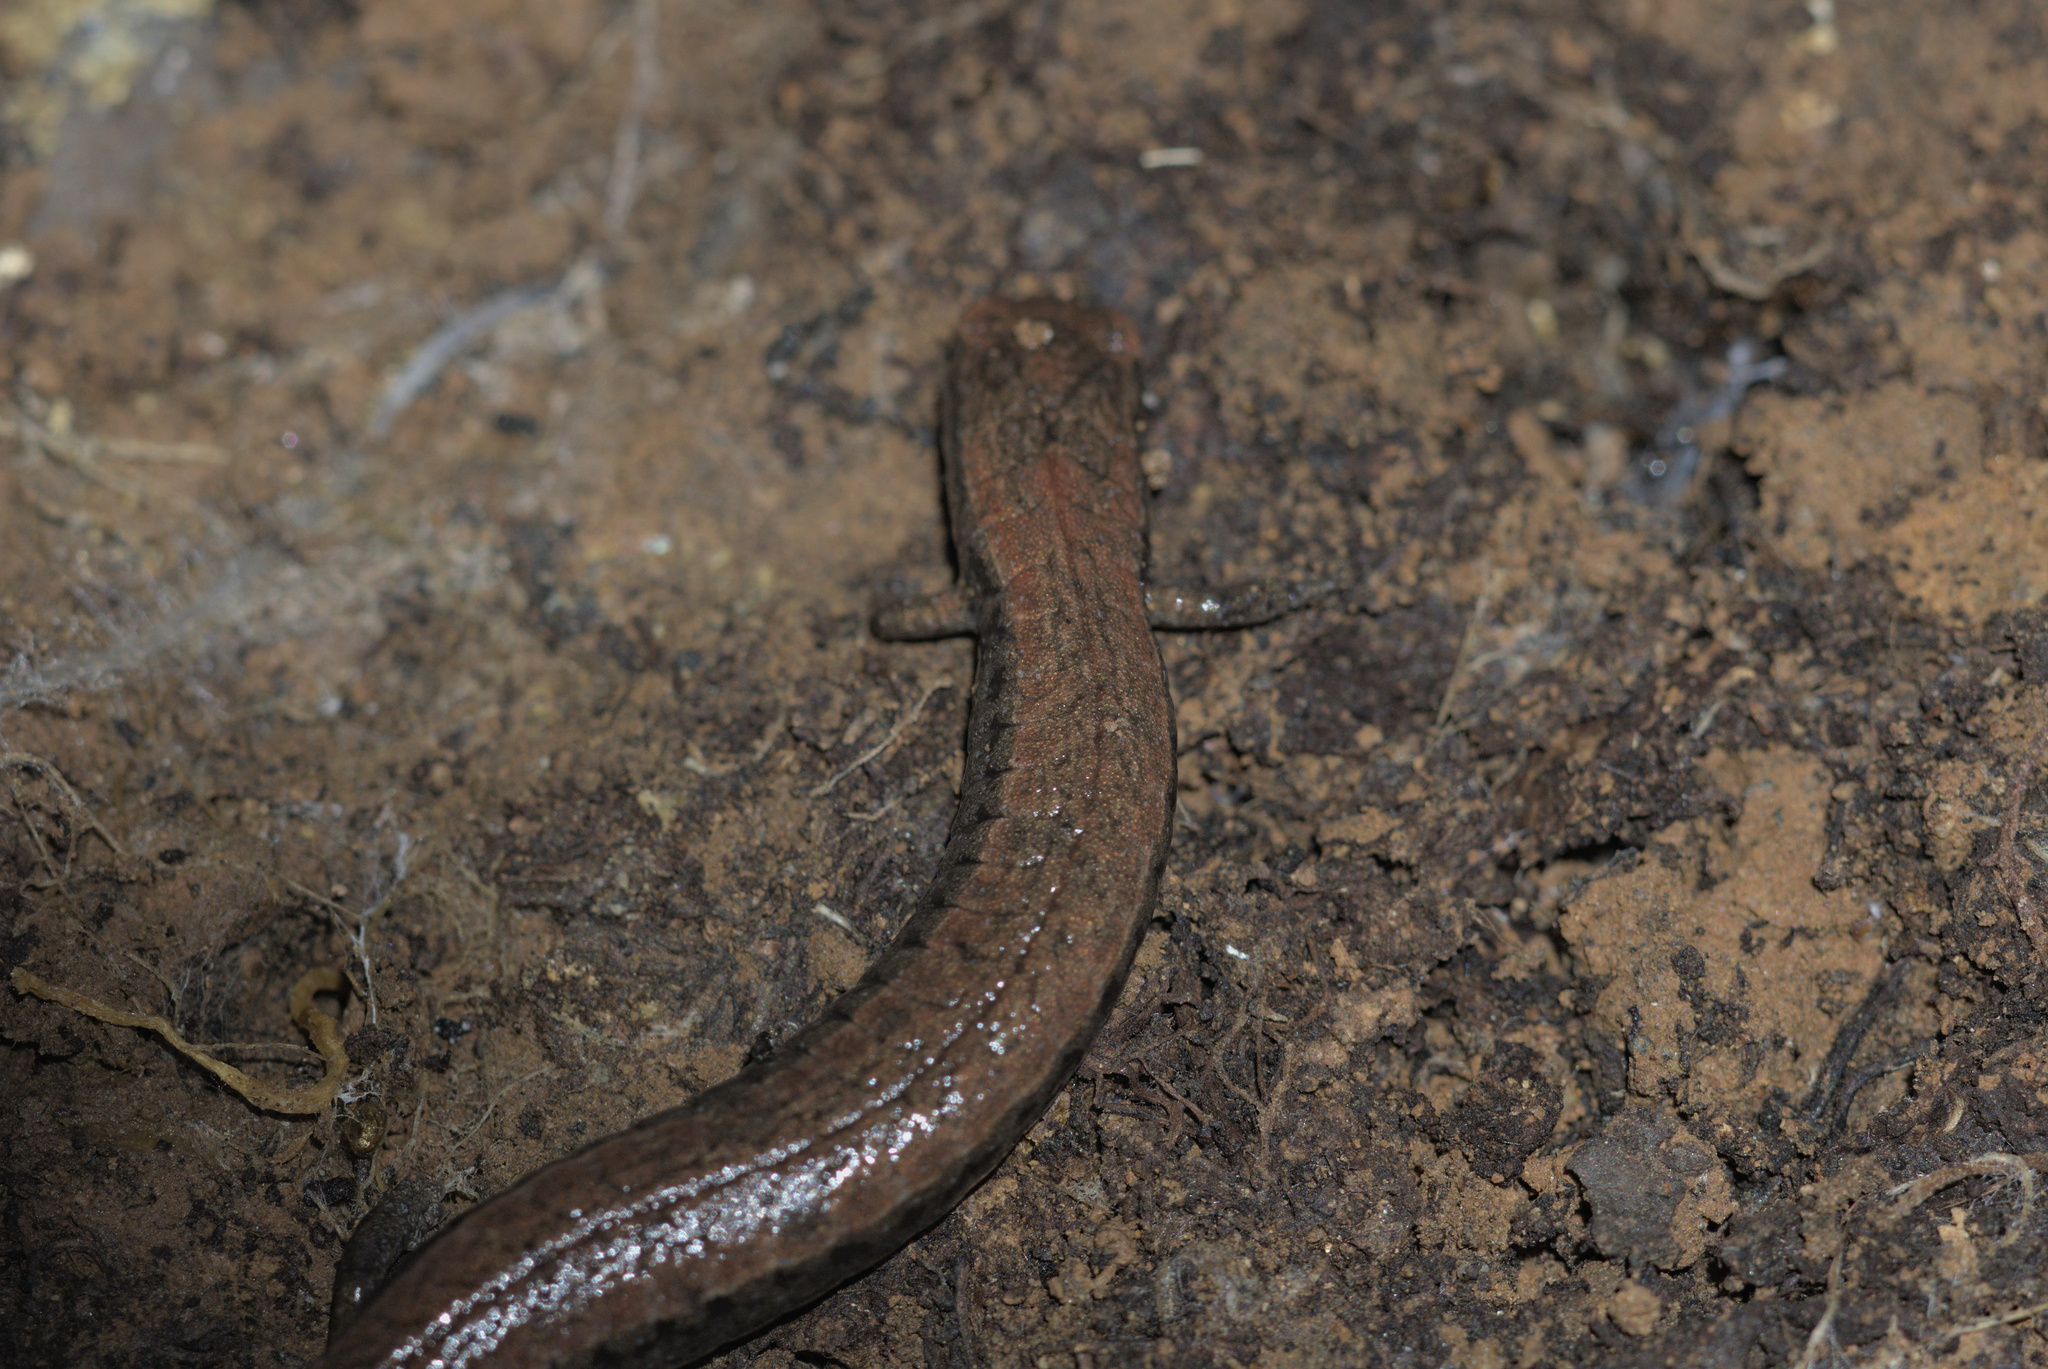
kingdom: Animalia
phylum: Chordata
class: Amphibia
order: Caudata
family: Plethodontidae
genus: Batrachoseps
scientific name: Batrachoseps attenuatus
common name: California slender salamander
